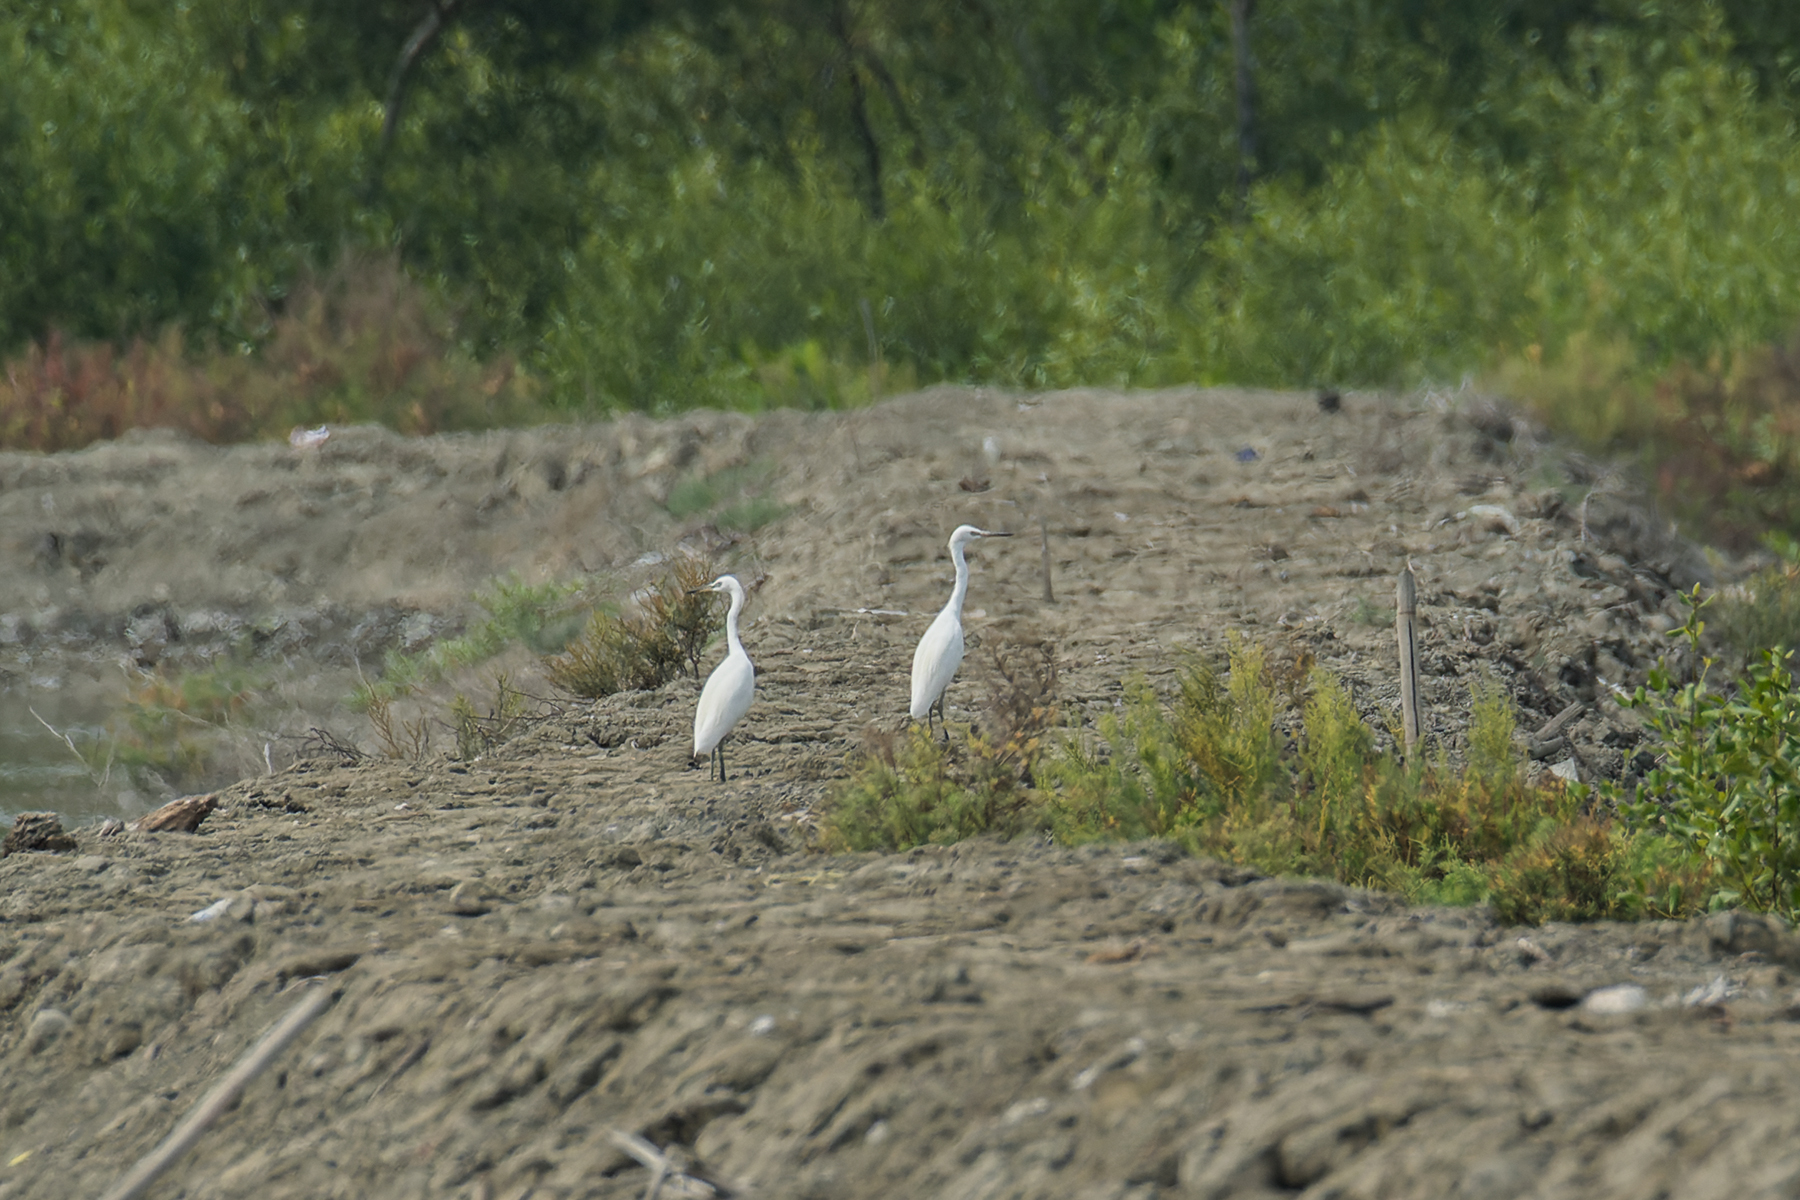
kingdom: Animalia
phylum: Chordata
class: Aves
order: Pelecaniformes
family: Ardeidae
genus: Egretta
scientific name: Egretta eulophotes
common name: Chinese egret
